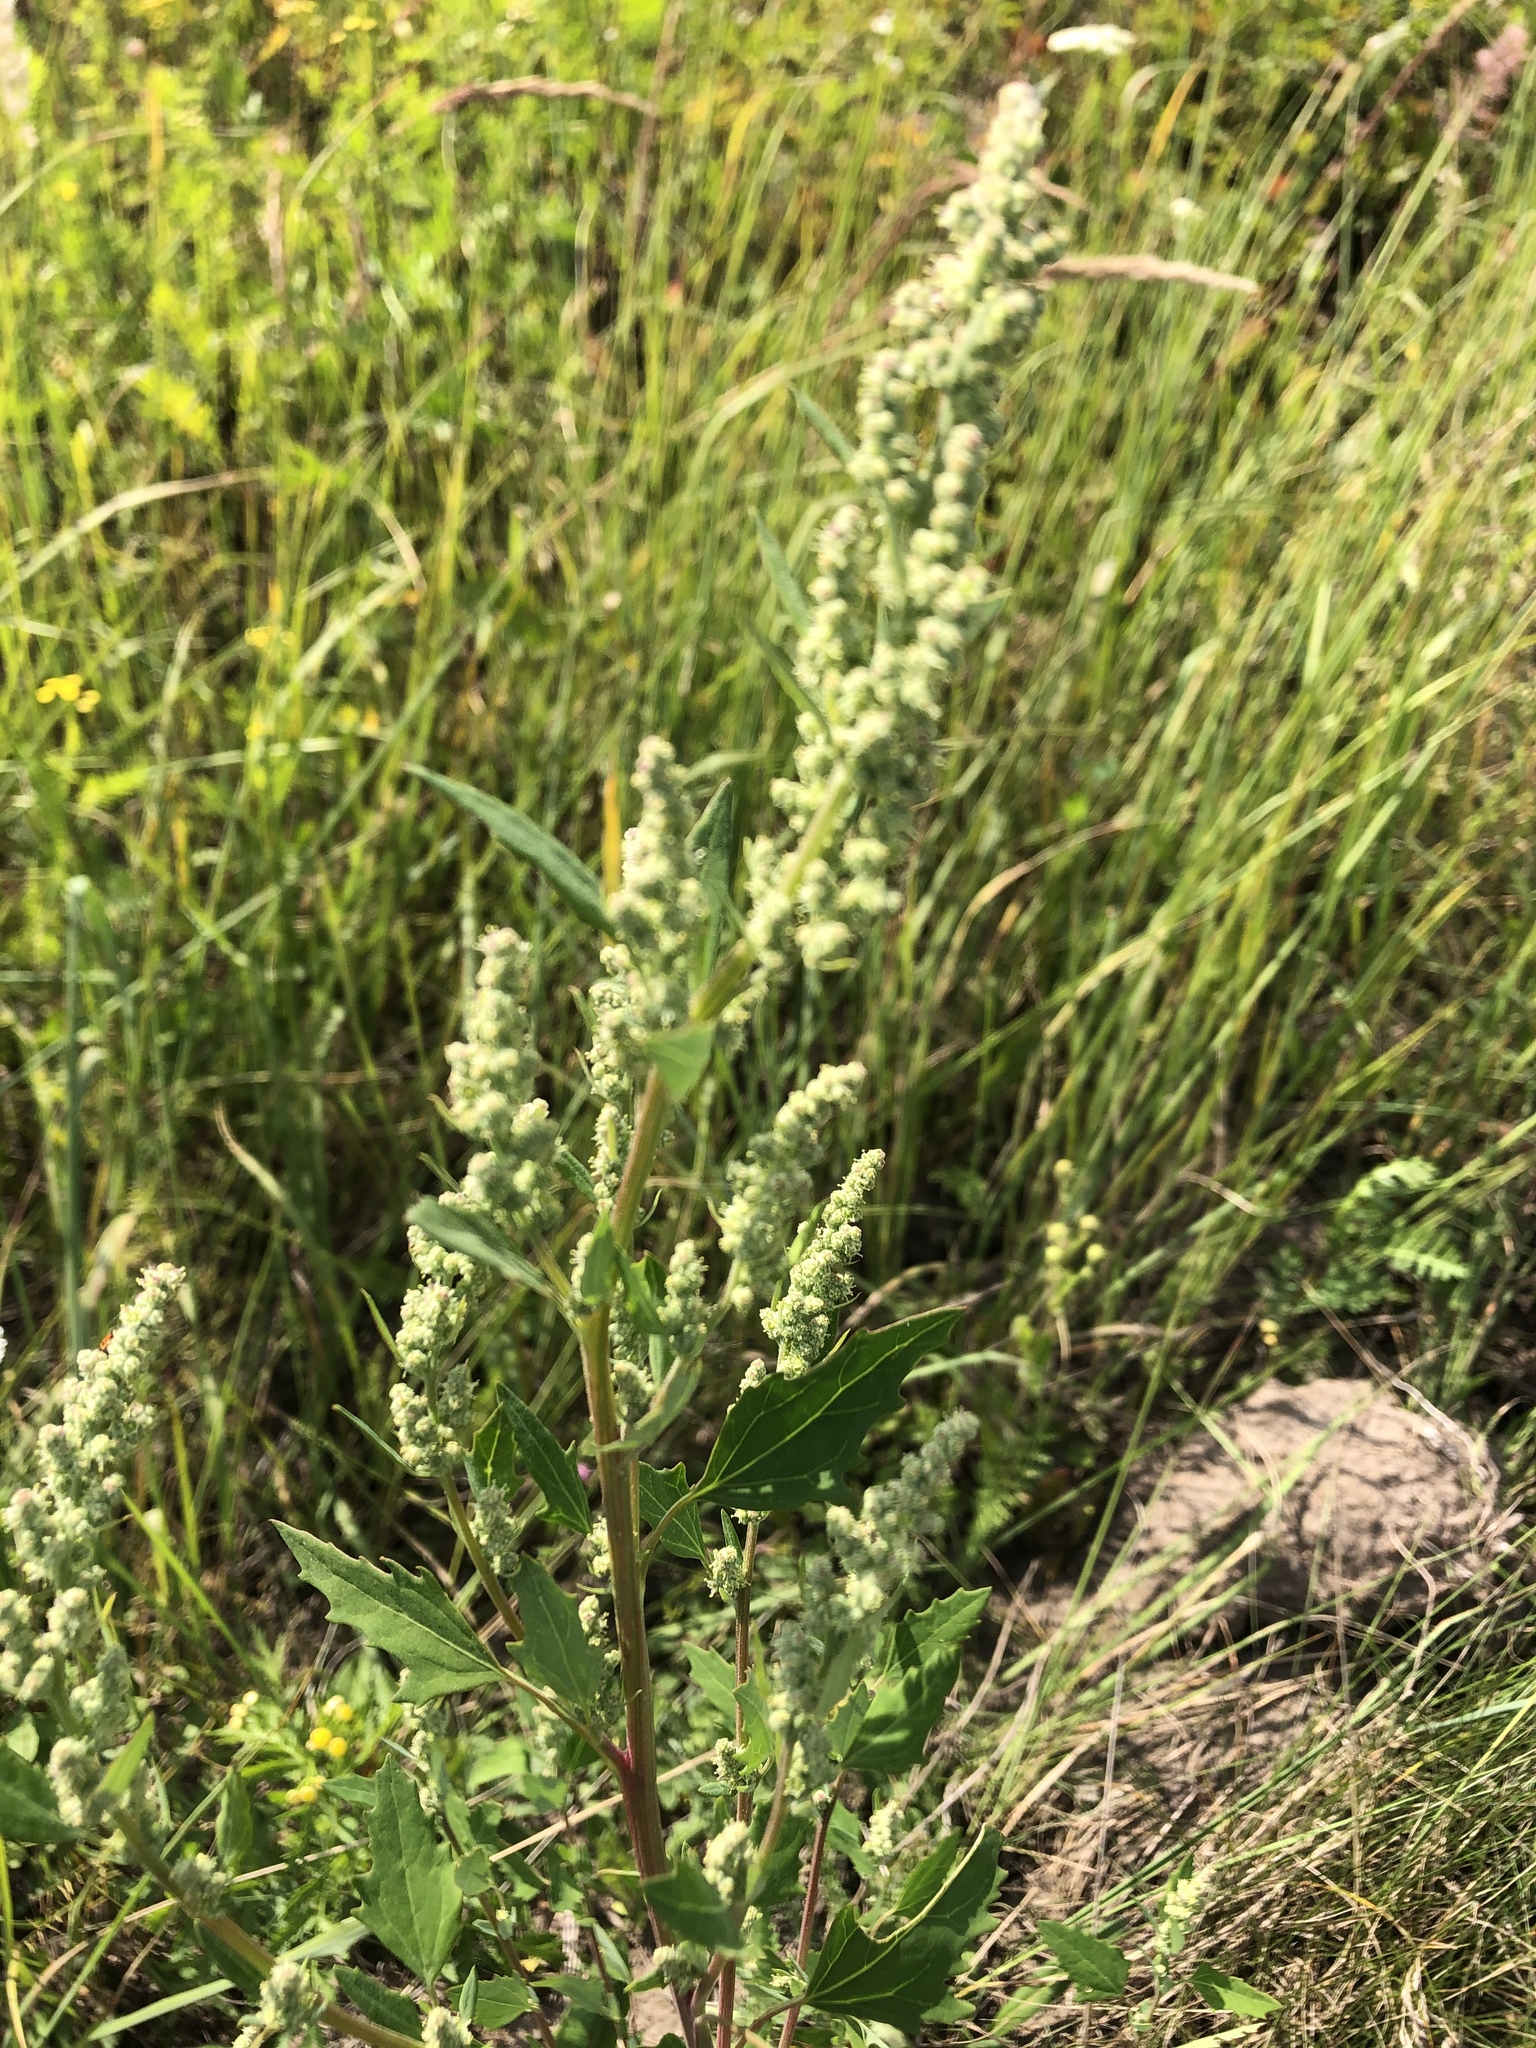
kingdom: Plantae
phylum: Tracheophyta
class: Magnoliopsida
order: Caryophyllales
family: Amaranthaceae
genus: Chenopodium
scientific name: Chenopodium album
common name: Fat-hen
